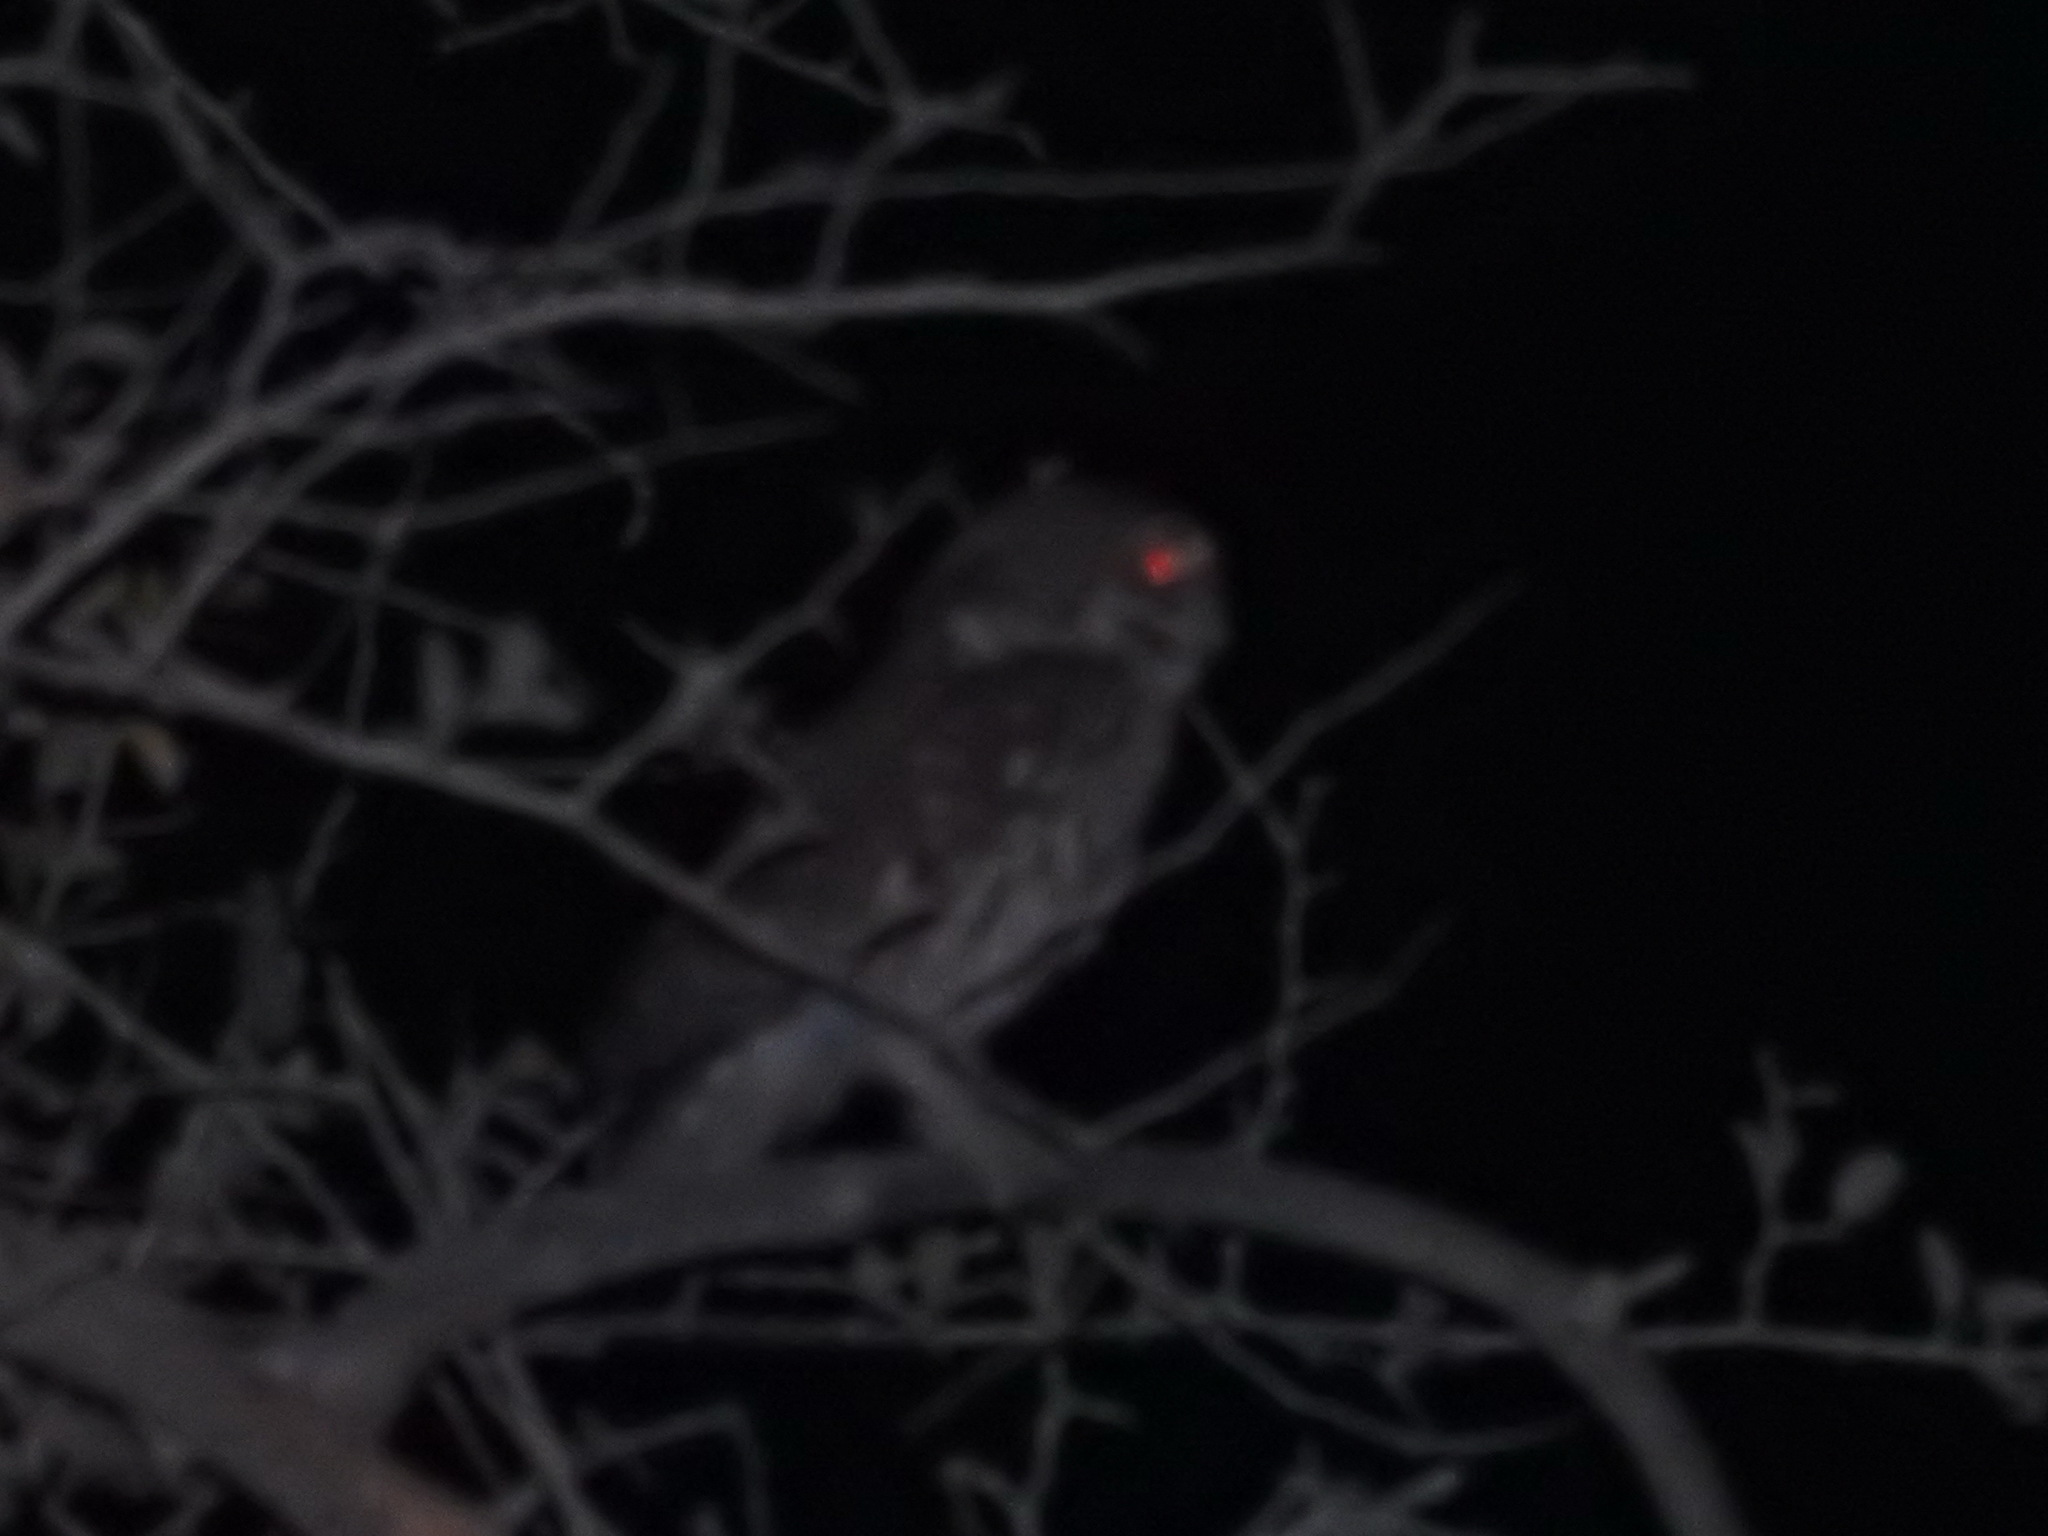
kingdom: Animalia
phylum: Chordata
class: Aves
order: Strigiformes
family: Strigidae
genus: Athene
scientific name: Athene noctua
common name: Little owl
